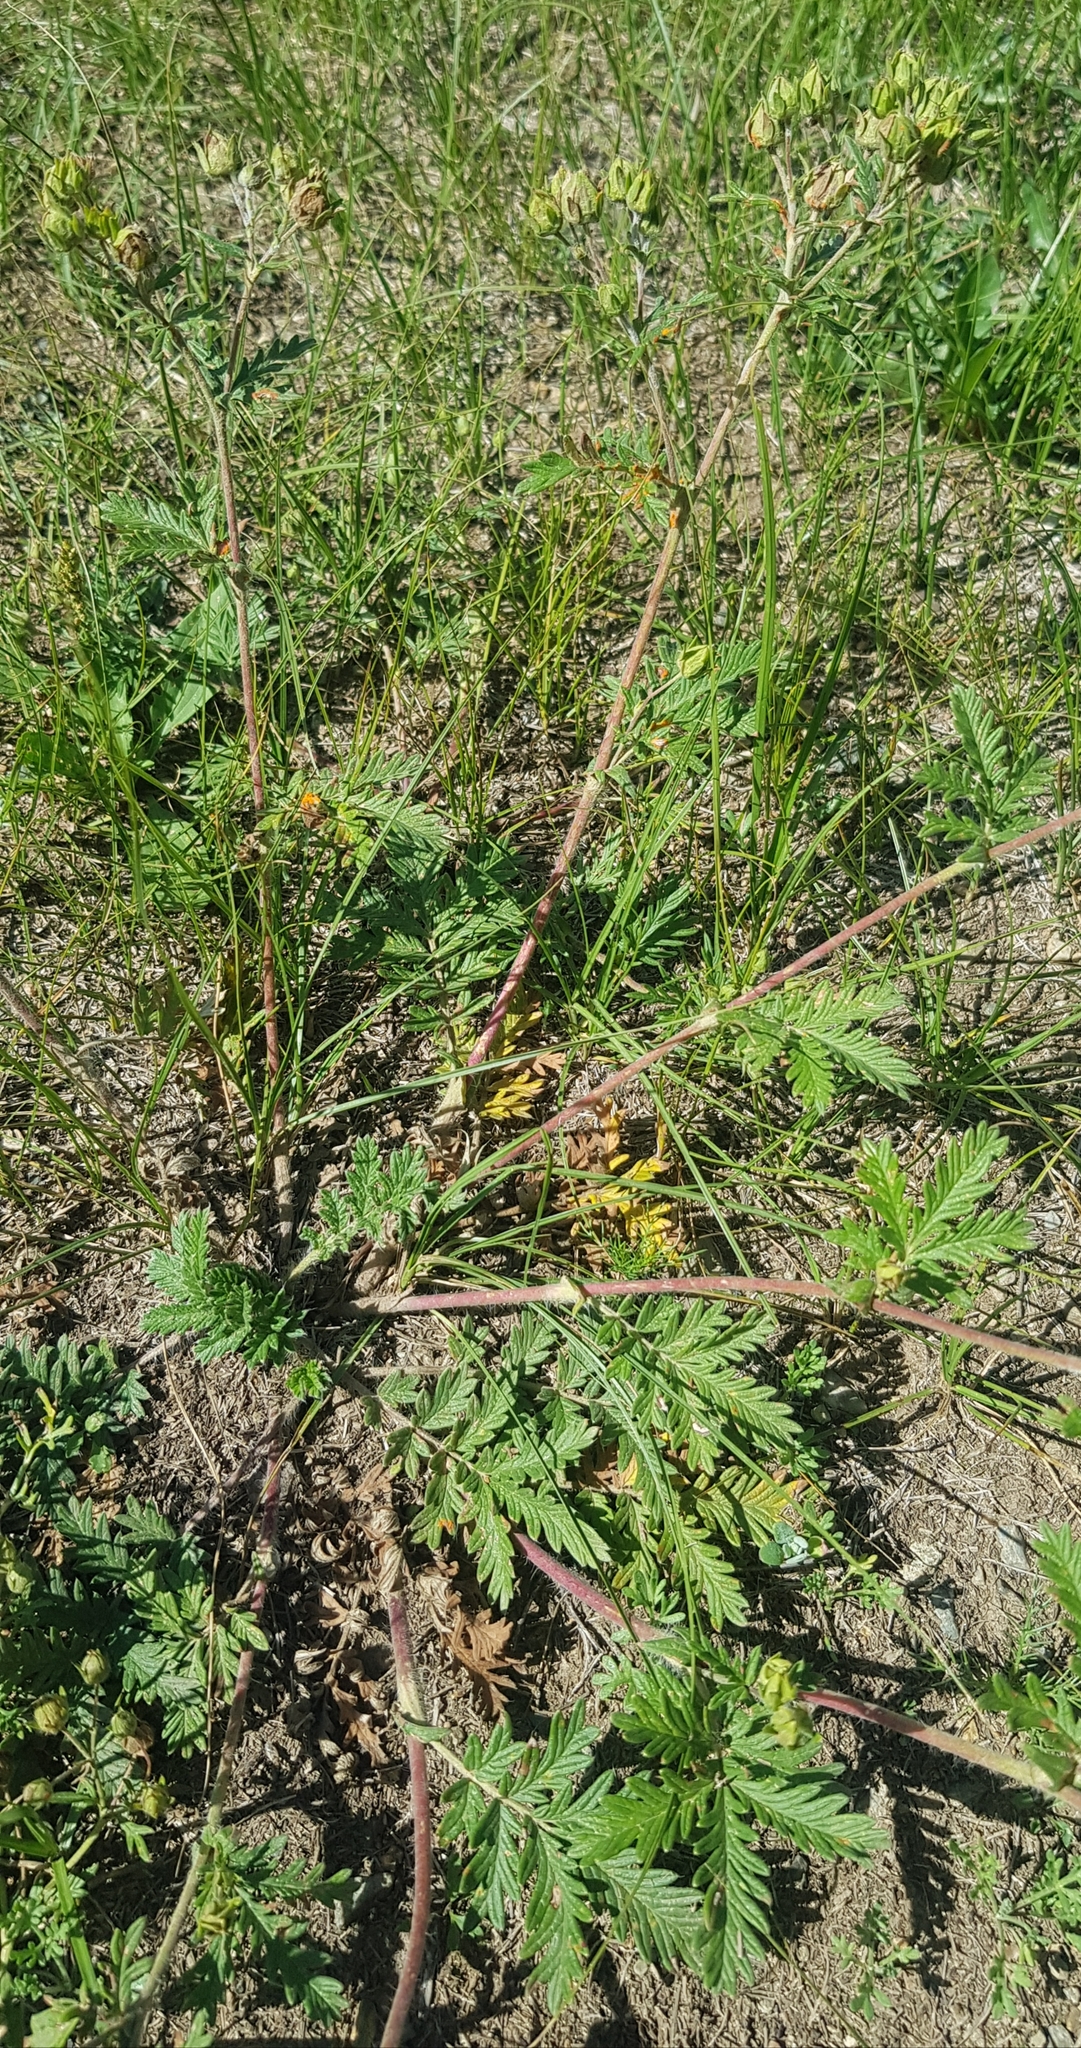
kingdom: Plantae
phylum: Tracheophyta
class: Magnoliopsida
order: Rosales
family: Rosaceae
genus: Potentilla
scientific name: Potentilla tanacetifolia
